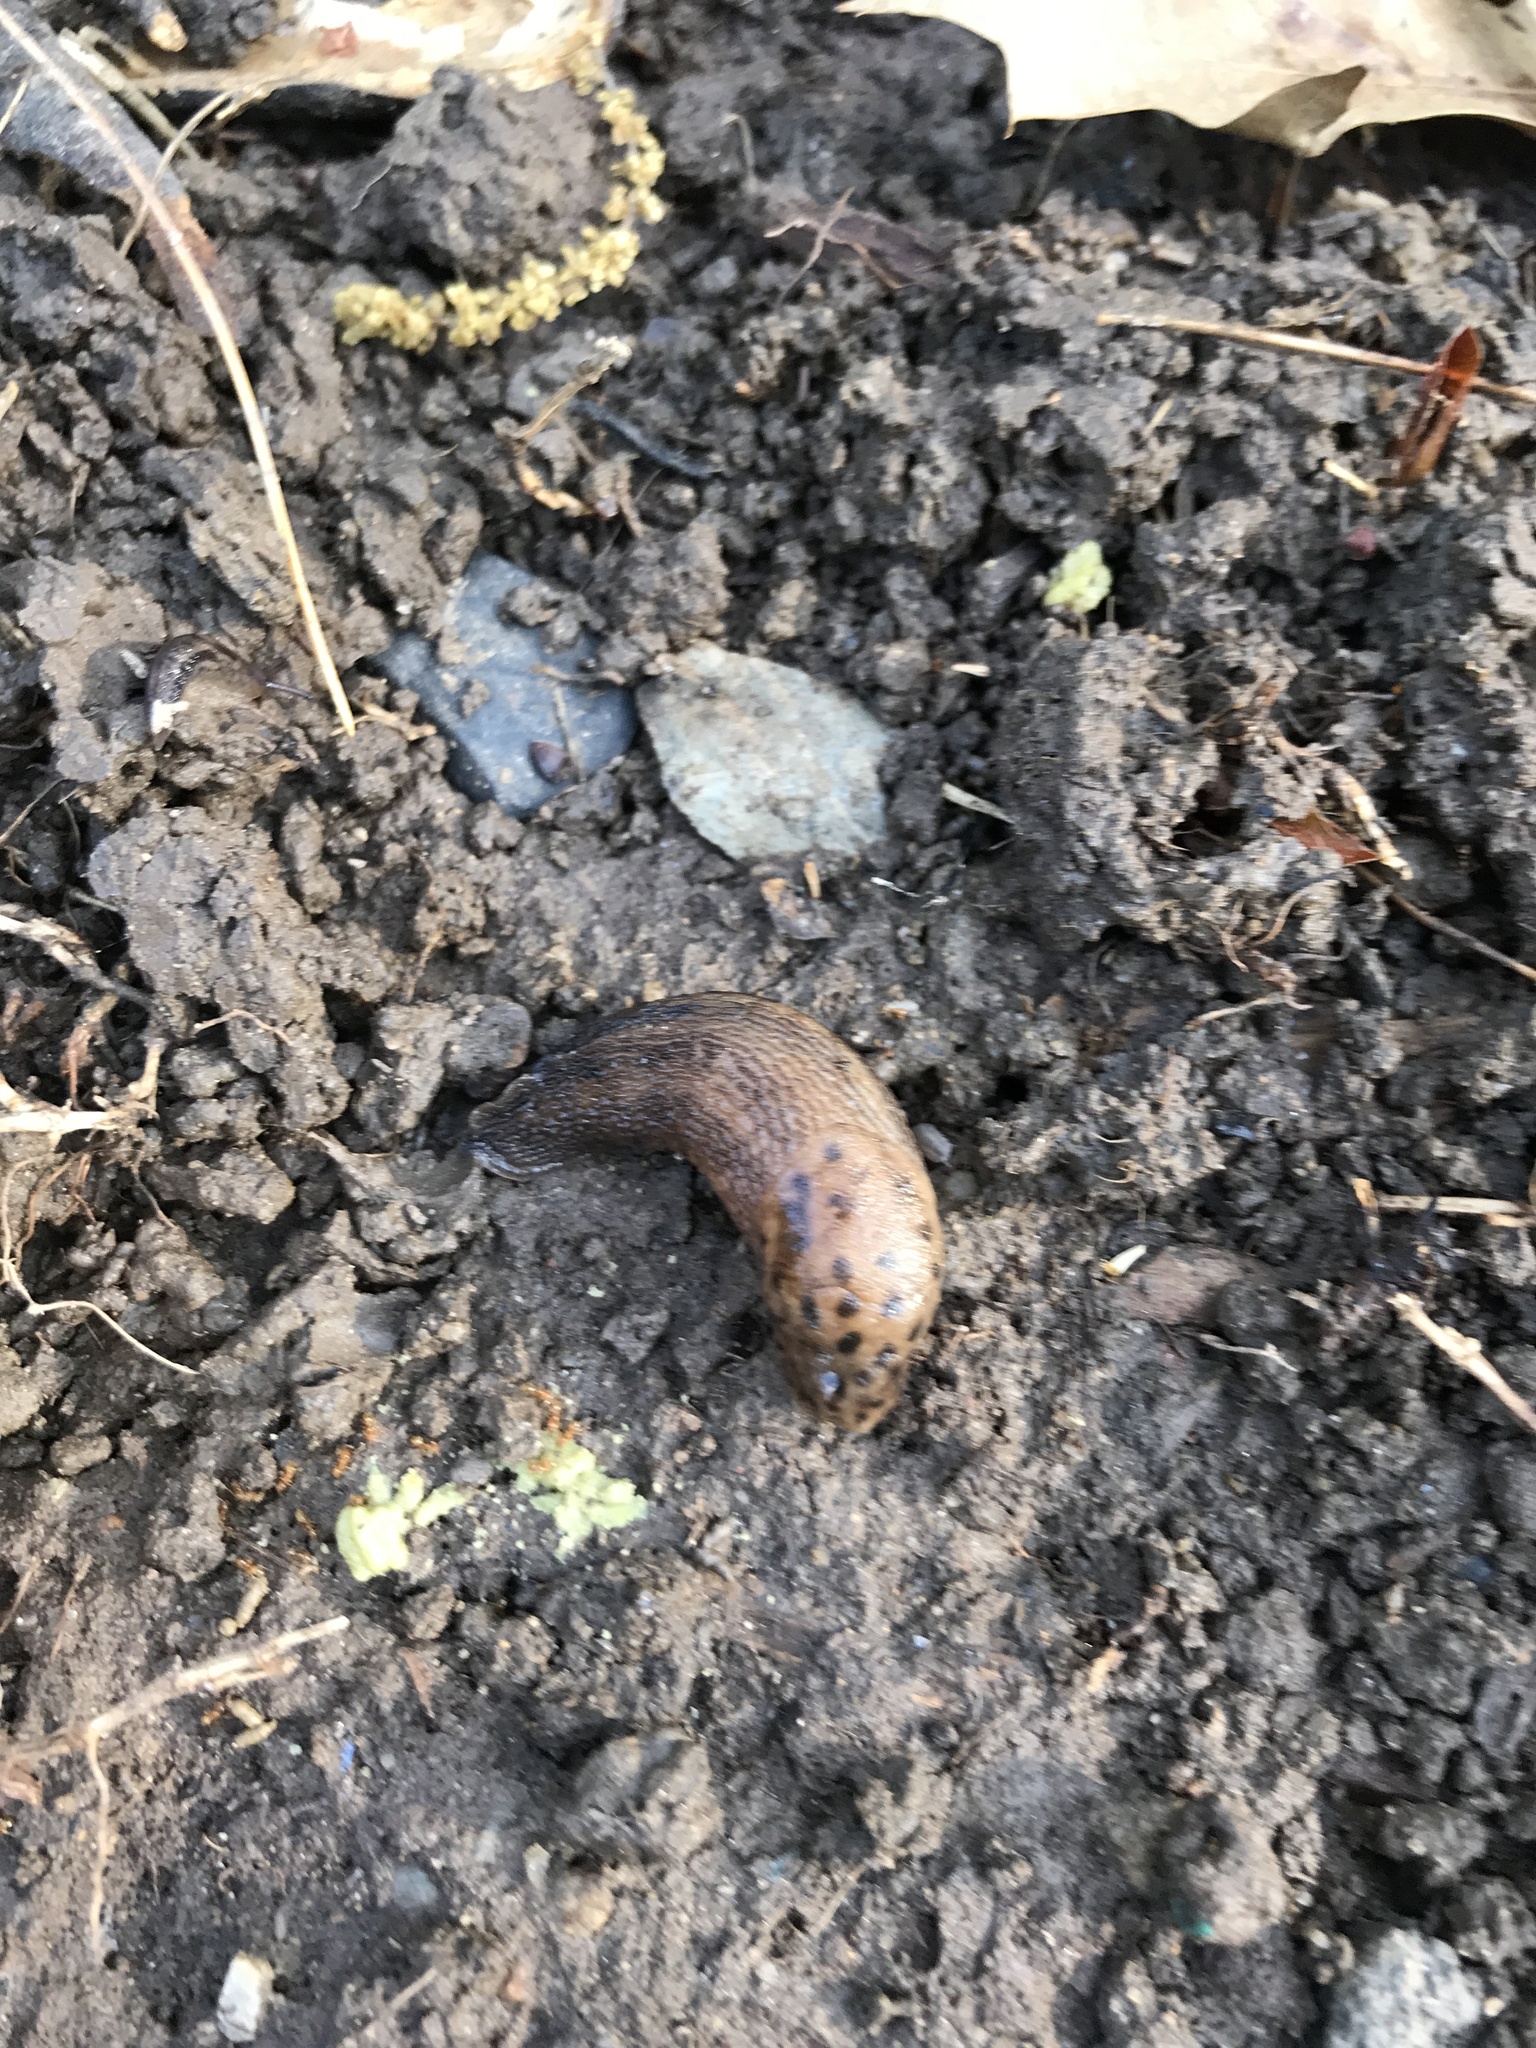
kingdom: Animalia
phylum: Mollusca
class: Gastropoda
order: Stylommatophora
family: Limacidae
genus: Limax
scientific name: Limax maximus
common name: Great grey slug
